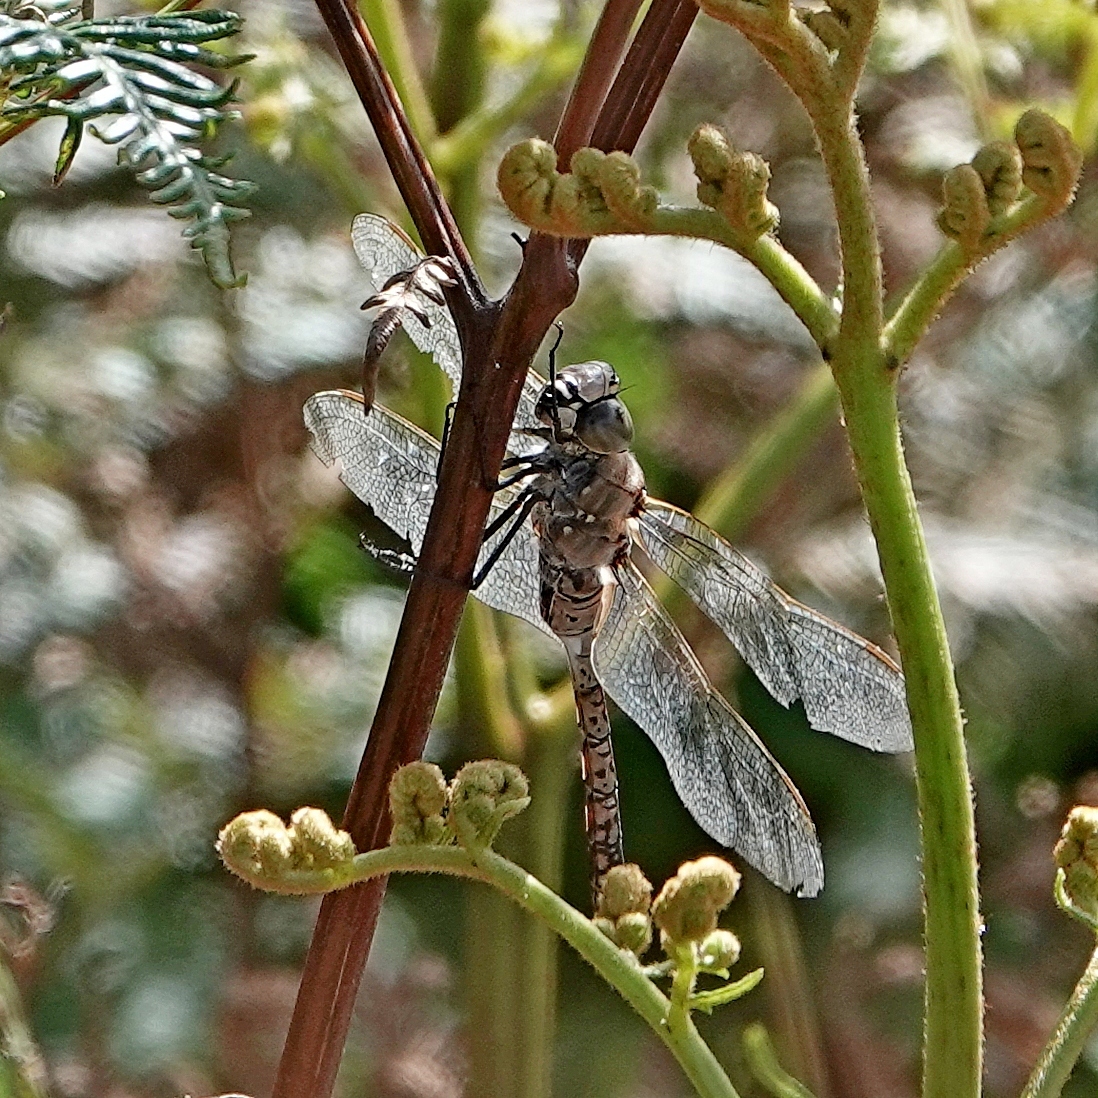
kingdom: Animalia
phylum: Arthropoda
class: Insecta
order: Odonata
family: Aeshnidae
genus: Anax
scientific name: Anax papuensis
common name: Australian emperor
